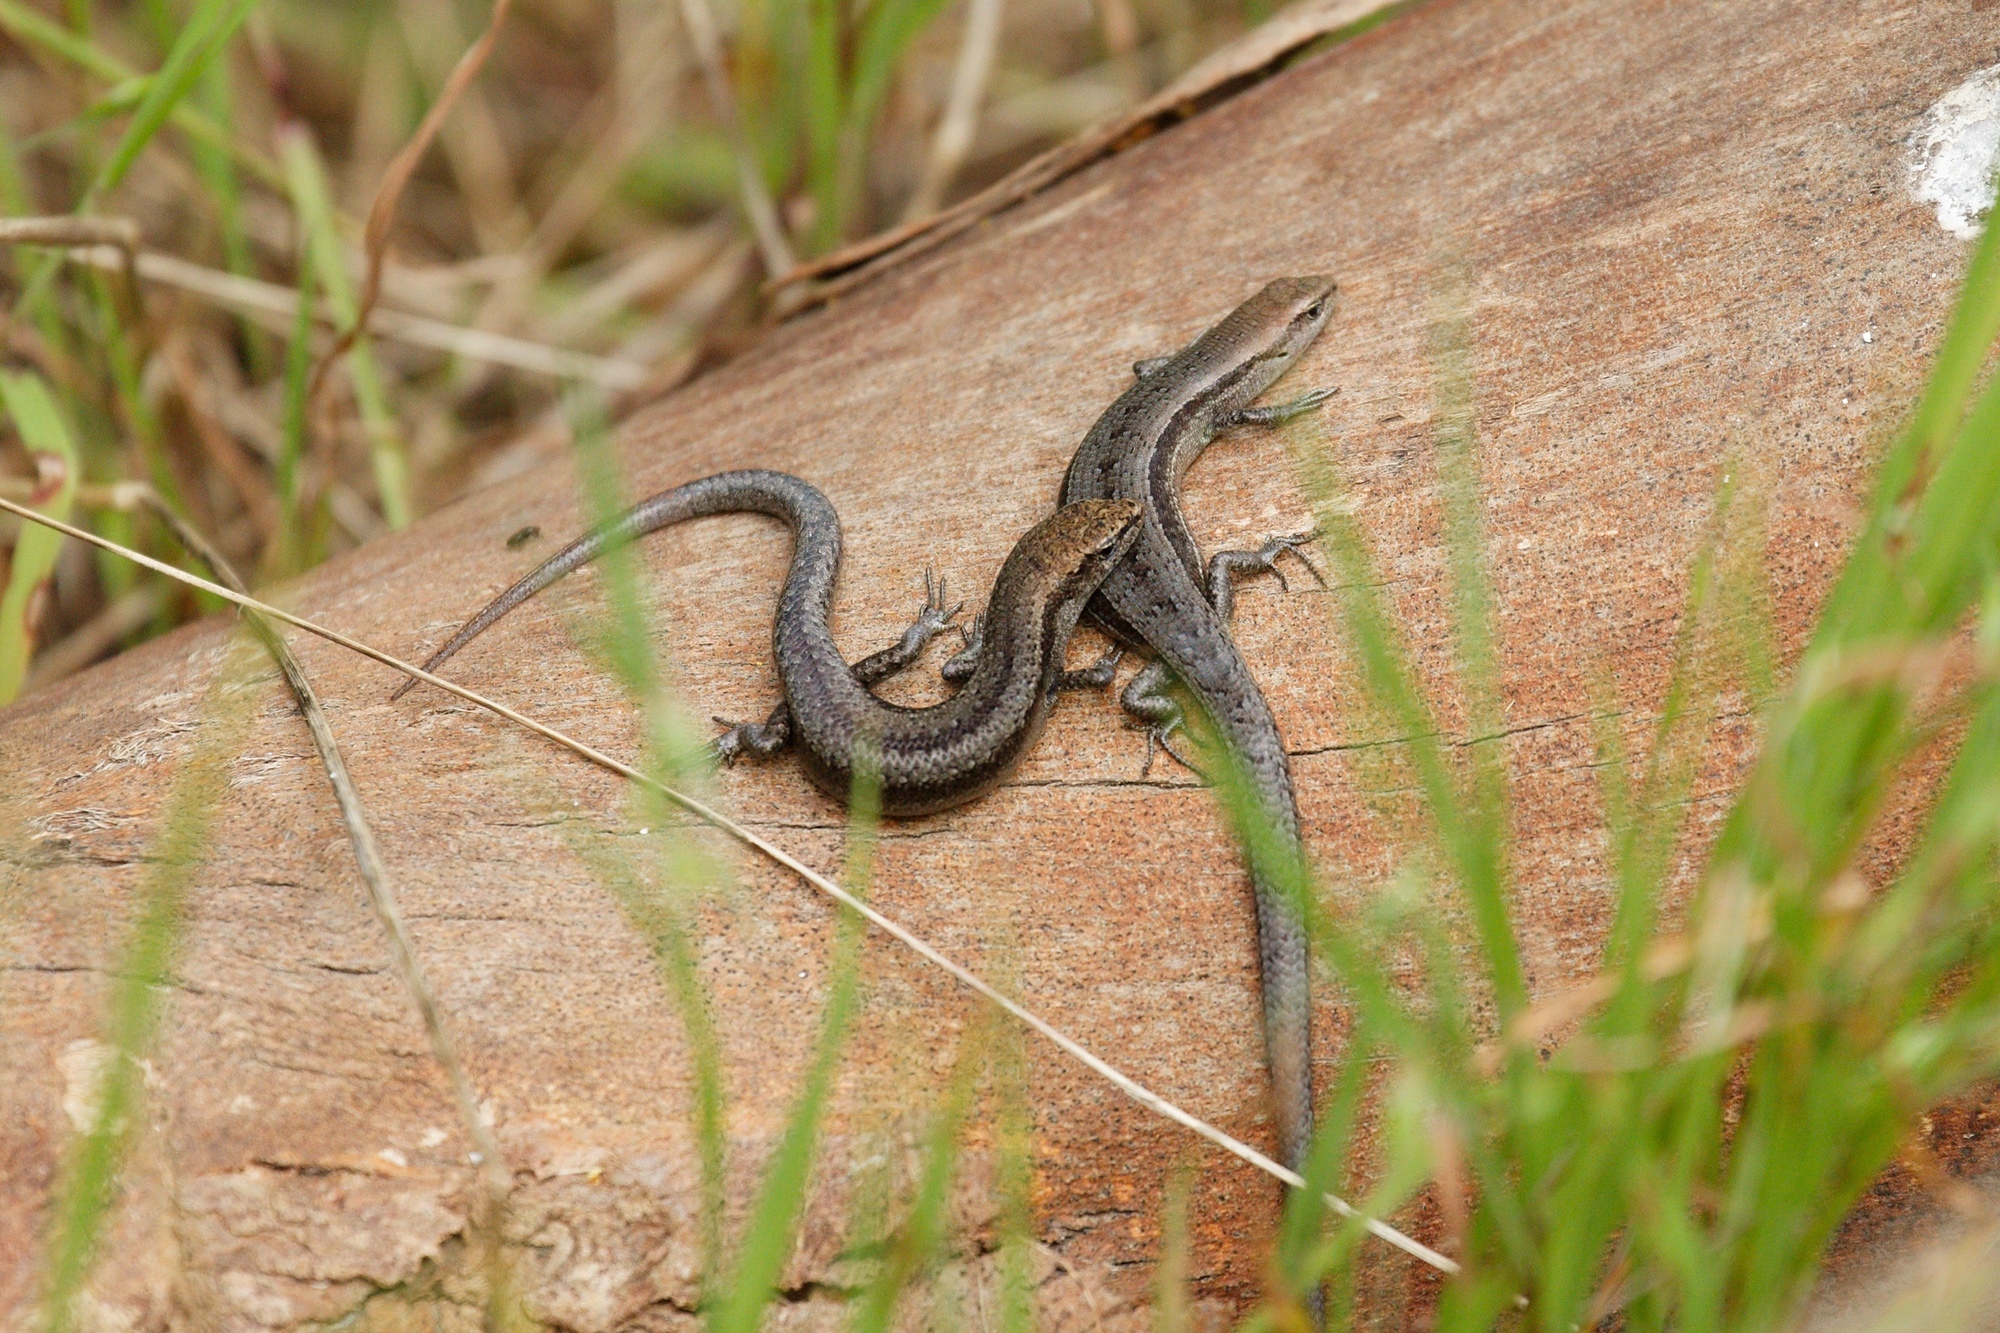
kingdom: Animalia
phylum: Chordata
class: Squamata
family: Scincidae
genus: Lampropholis
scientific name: Lampropholis guichenoti
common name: Garden skink
